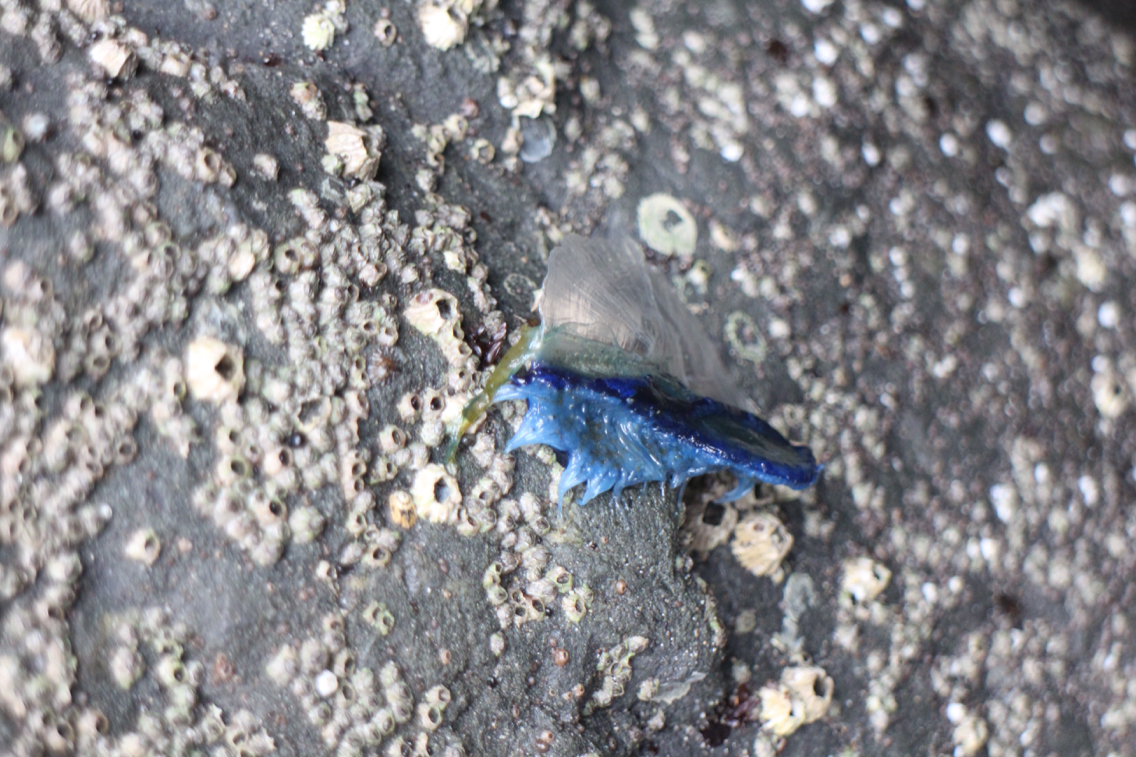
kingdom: Animalia
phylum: Cnidaria
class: Hydrozoa
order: Anthoathecata
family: Porpitidae
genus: Velella
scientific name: Velella velella
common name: By-the-wind-sailor
